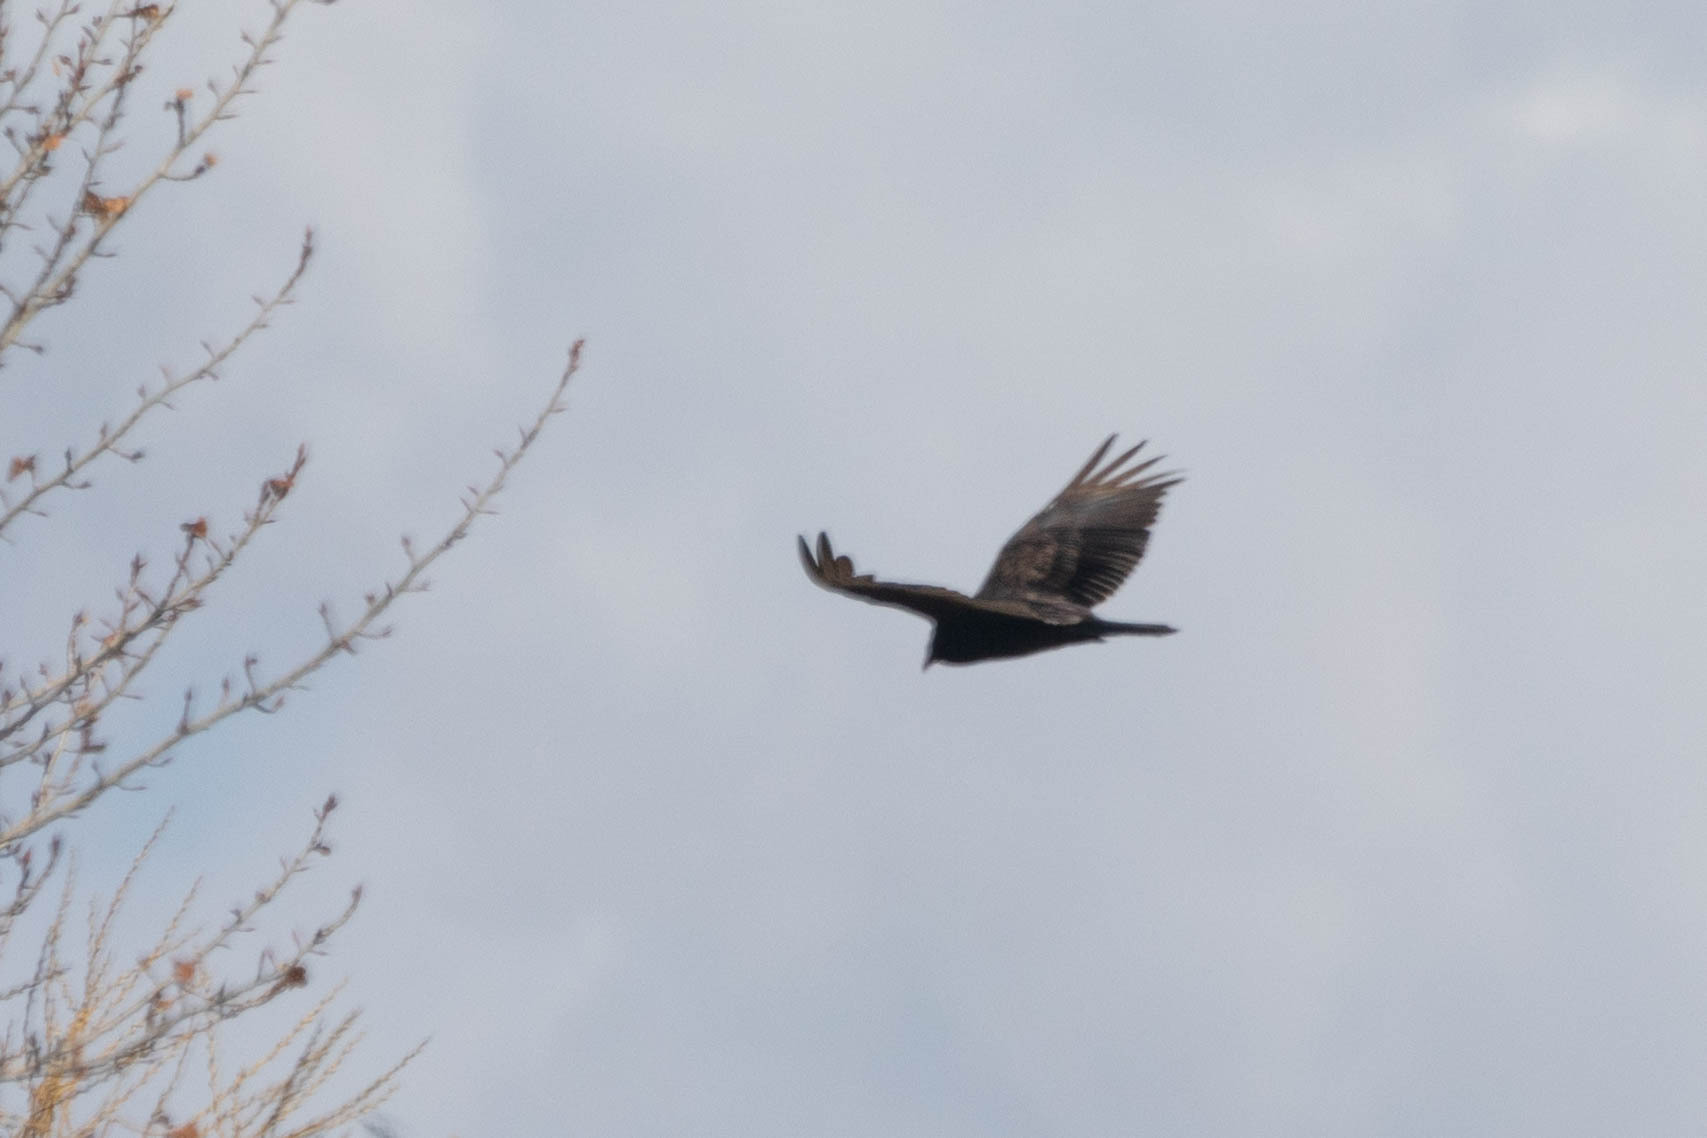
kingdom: Animalia
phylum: Chordata
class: Aves
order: Accipitriformes
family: Cathartidae
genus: Cathartes
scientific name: Cathartes aura
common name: Turkey vulture
